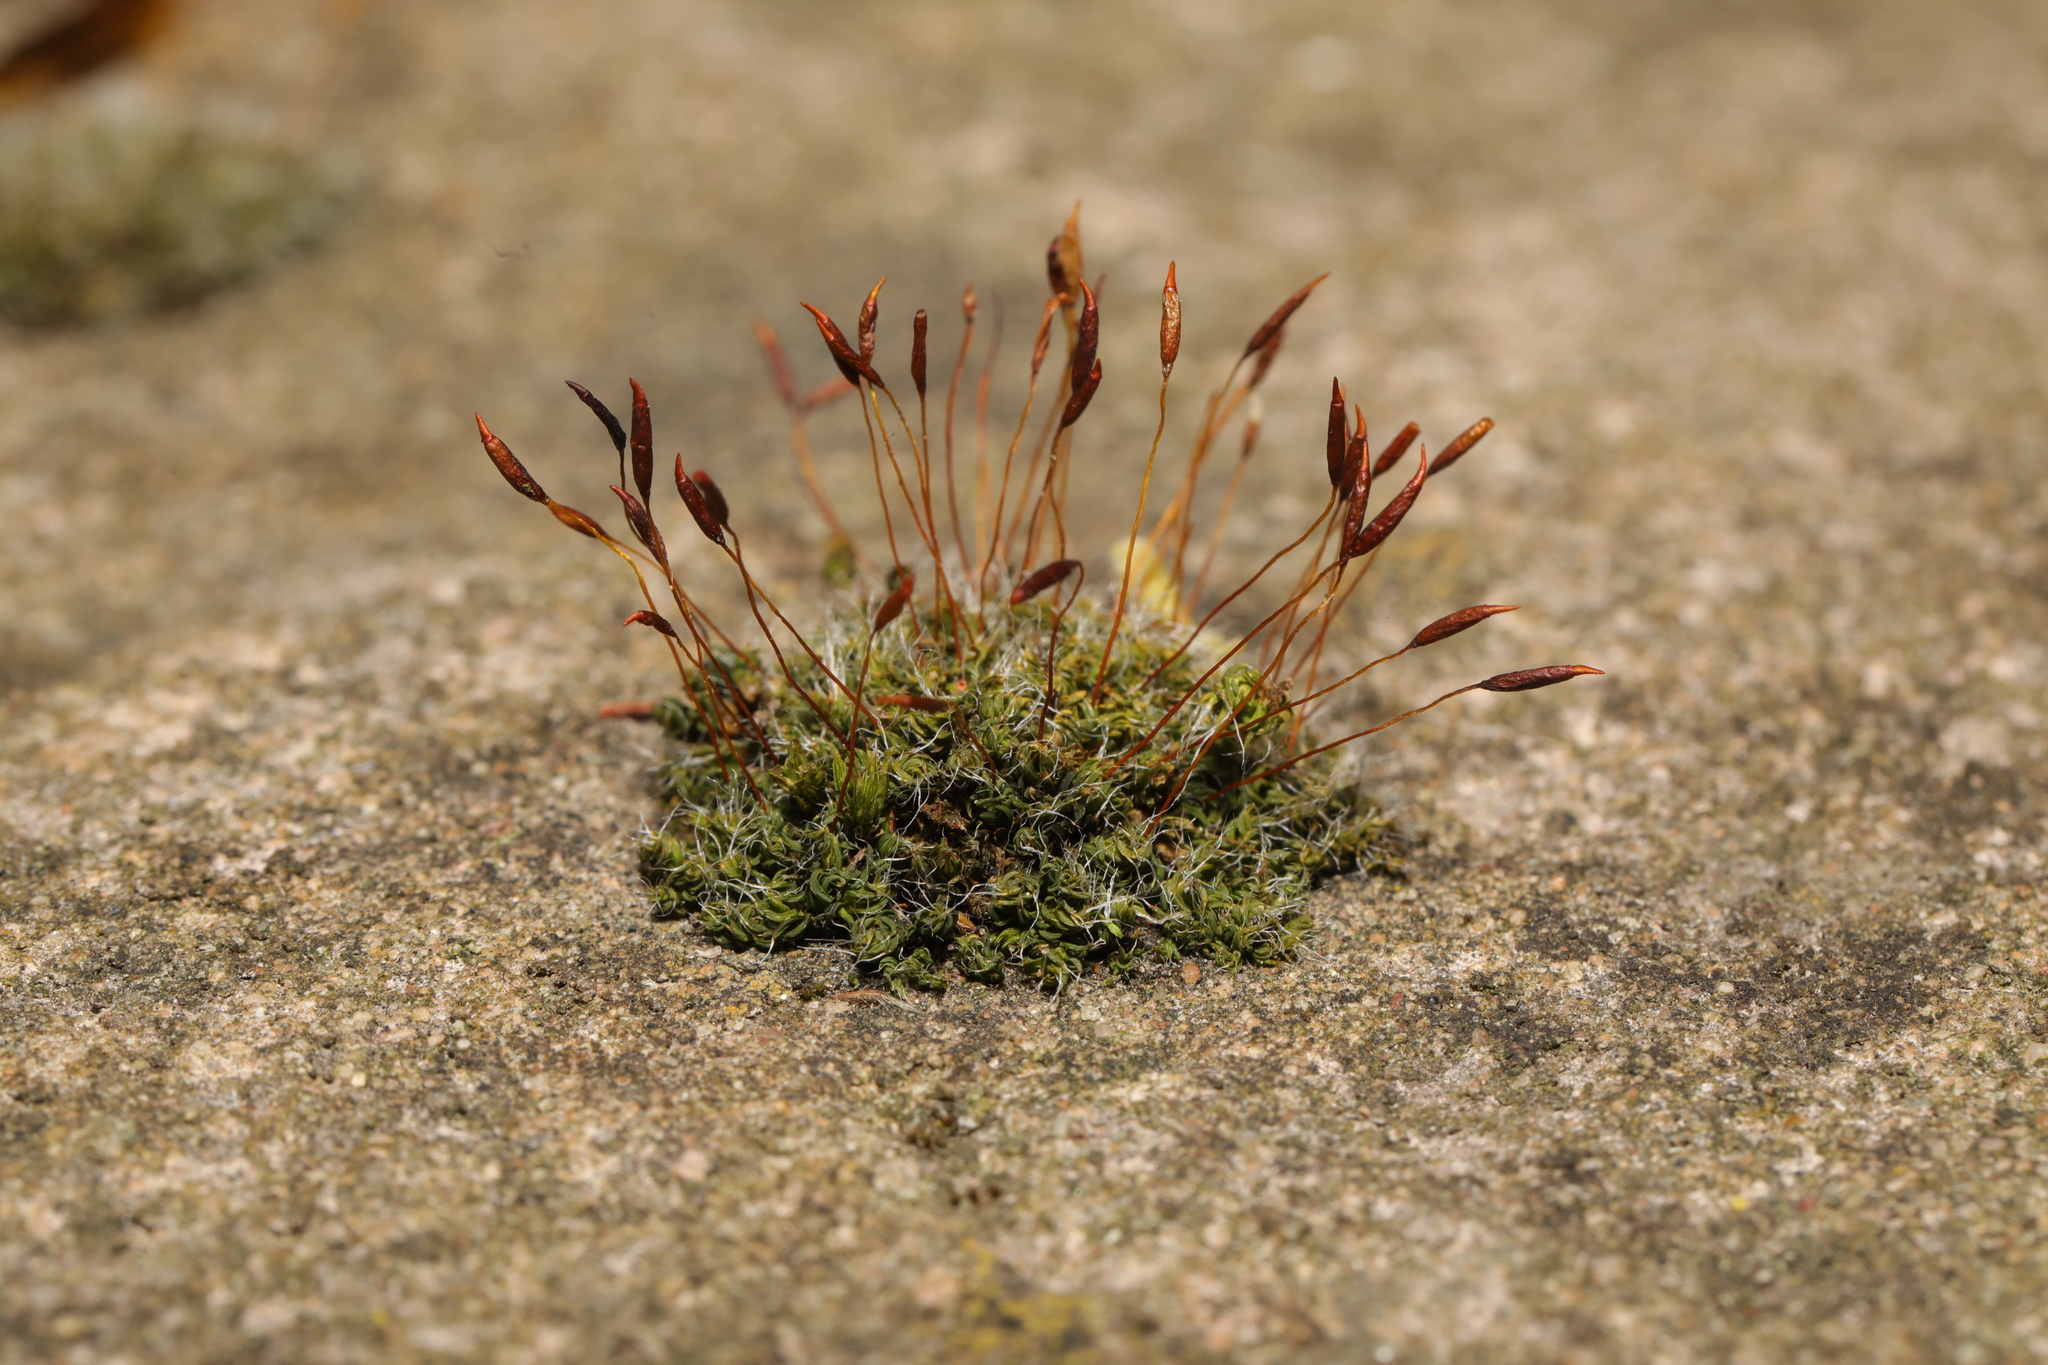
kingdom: Plantae
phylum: Bryophyta
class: Bryopsida
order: Pottiales
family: Pottiaceae
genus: Tortula
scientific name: Tortula muralis
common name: Wall screw-moss
